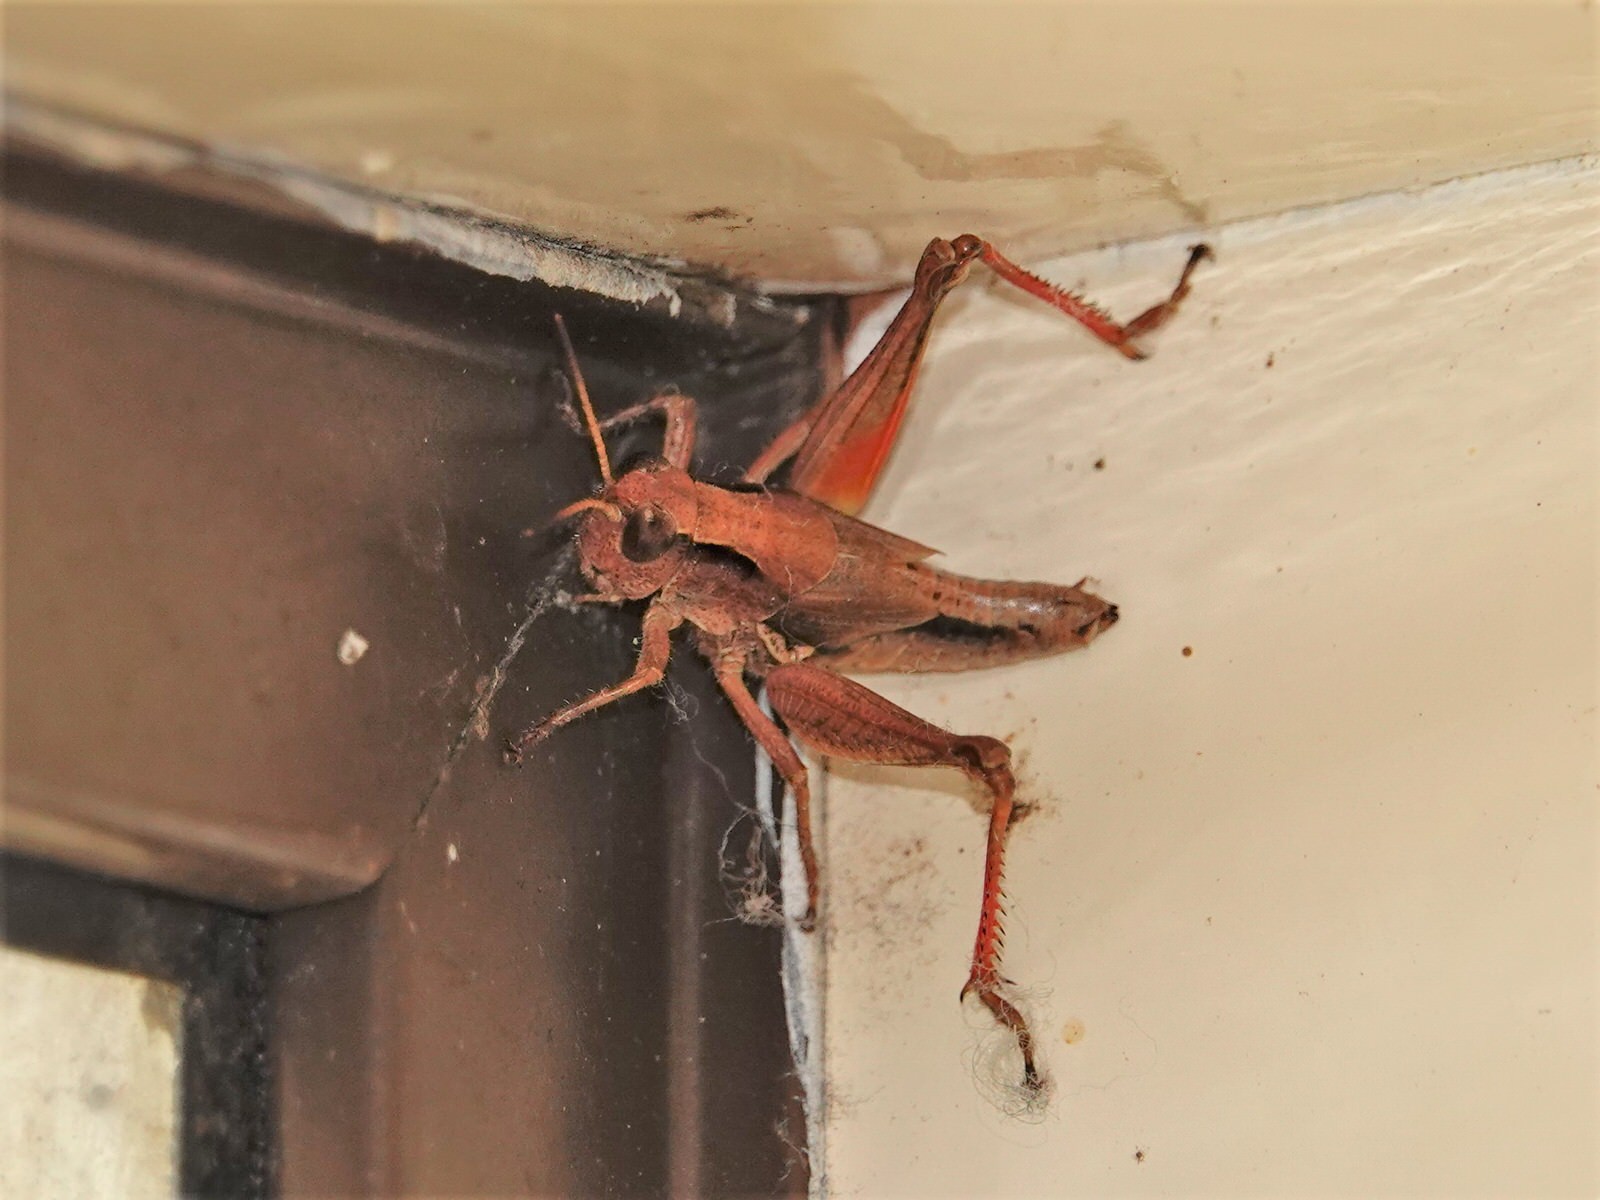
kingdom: Animalia
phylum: Arthropoda
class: Insecta
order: Orthoptera
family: Acrididae
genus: Phaulacridium
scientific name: Phaulacridium marginale
